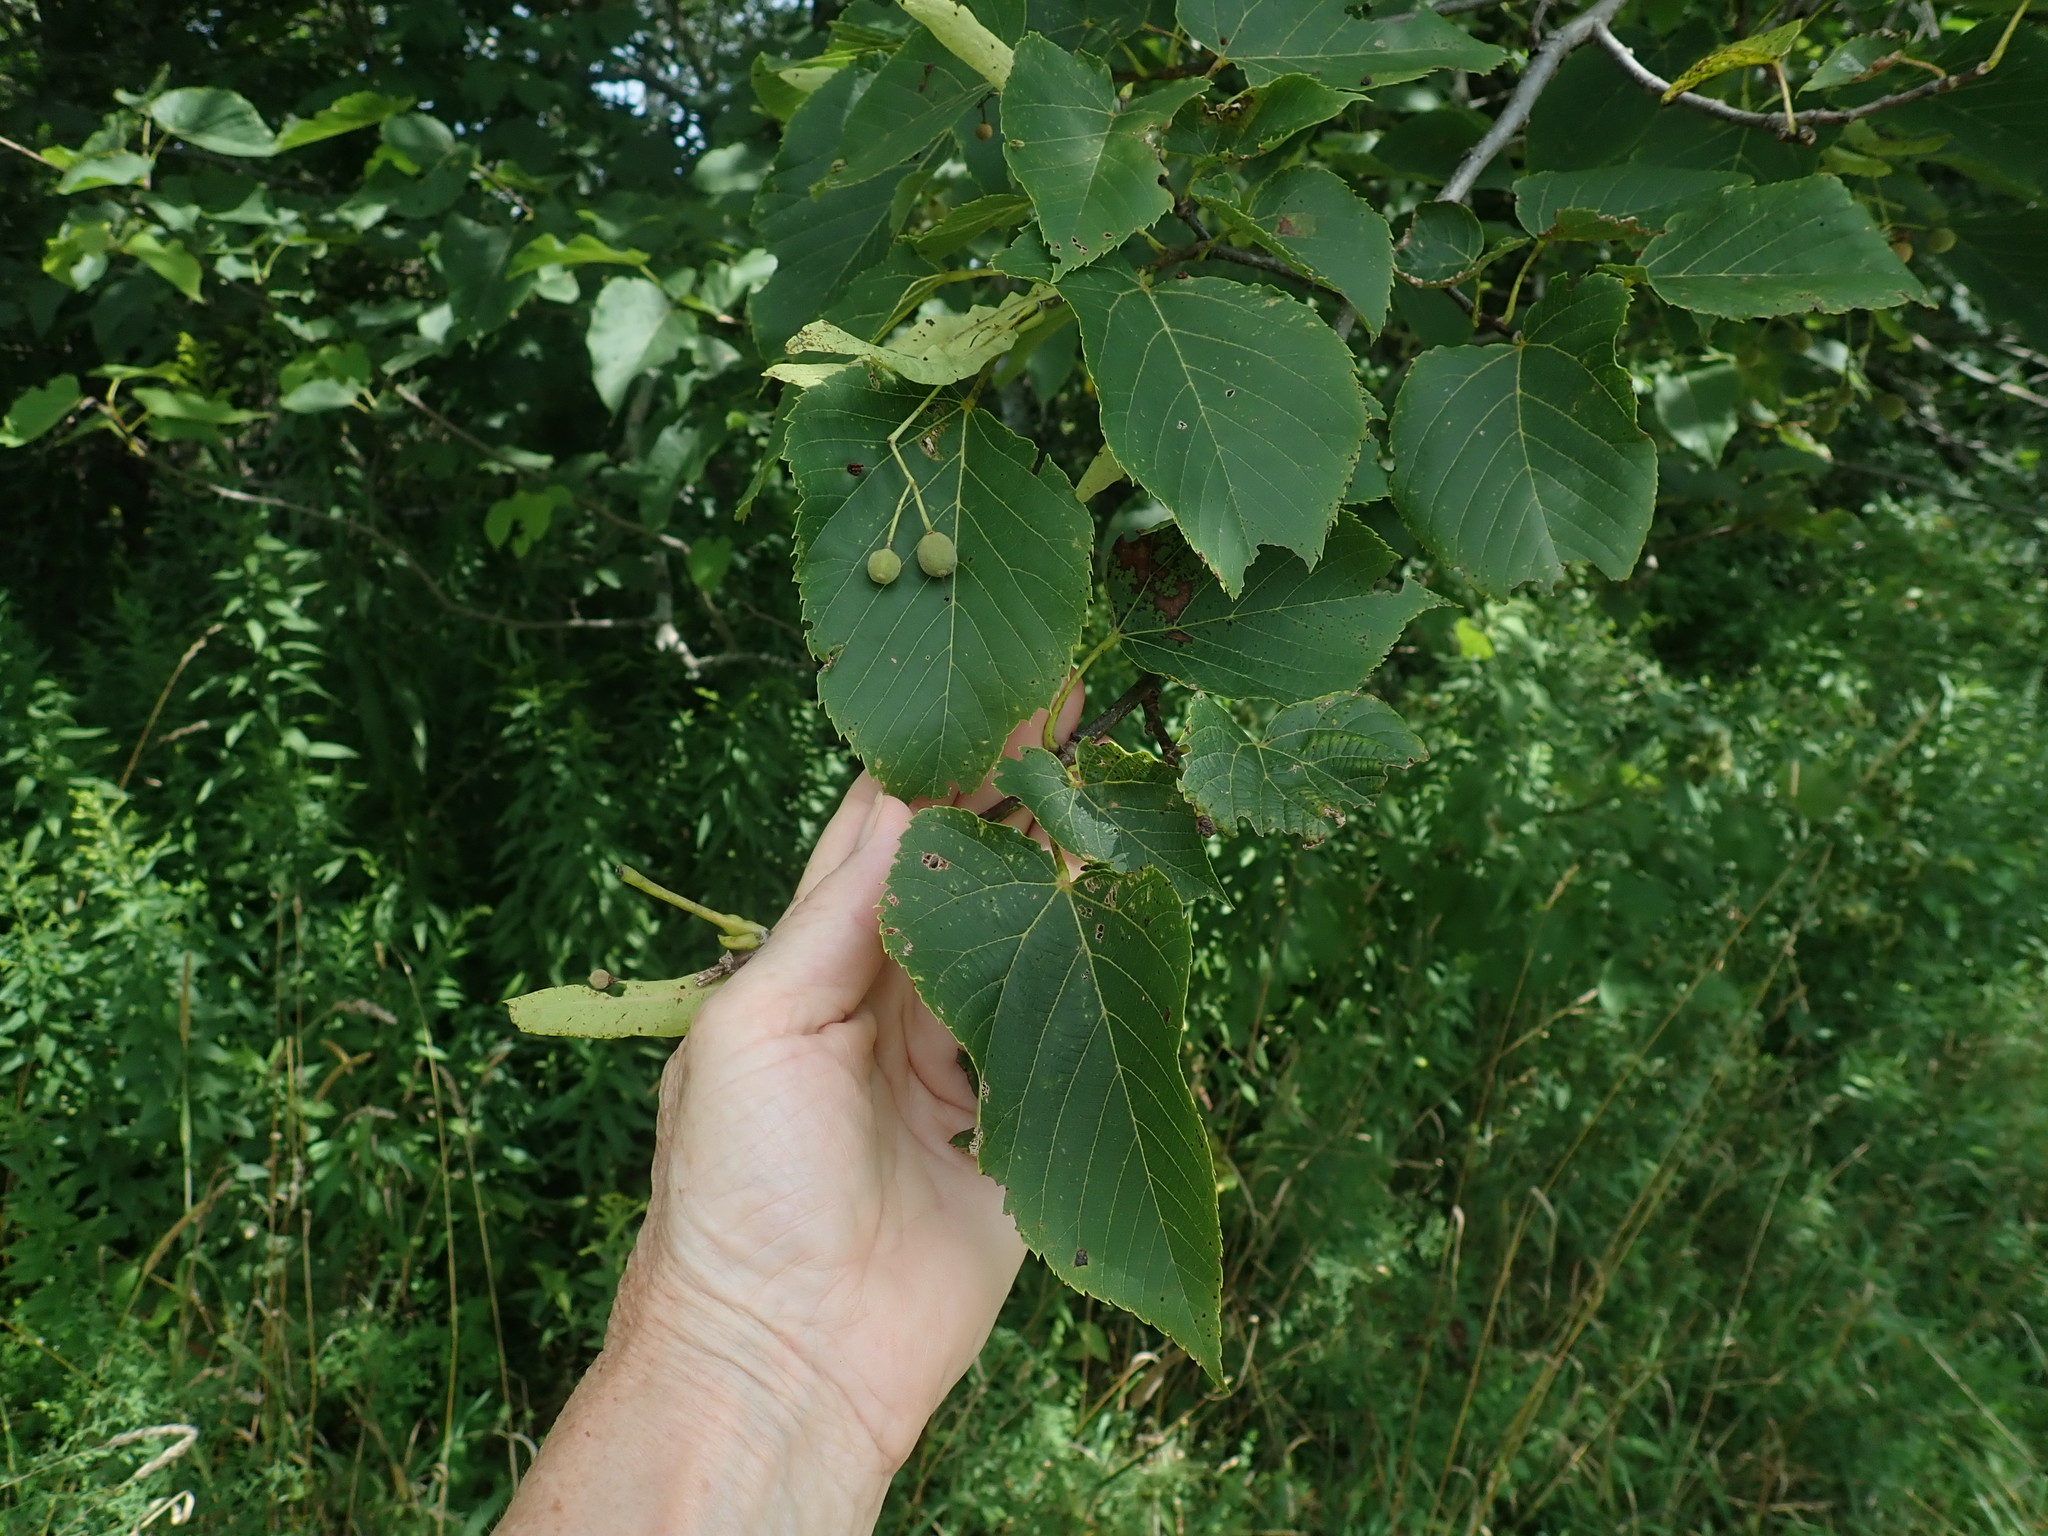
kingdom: Plantae
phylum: Tracheophyta
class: Magnoliopsida
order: Malvales
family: Malvaceae
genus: Tilia
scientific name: Tilia americana
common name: Basswood
